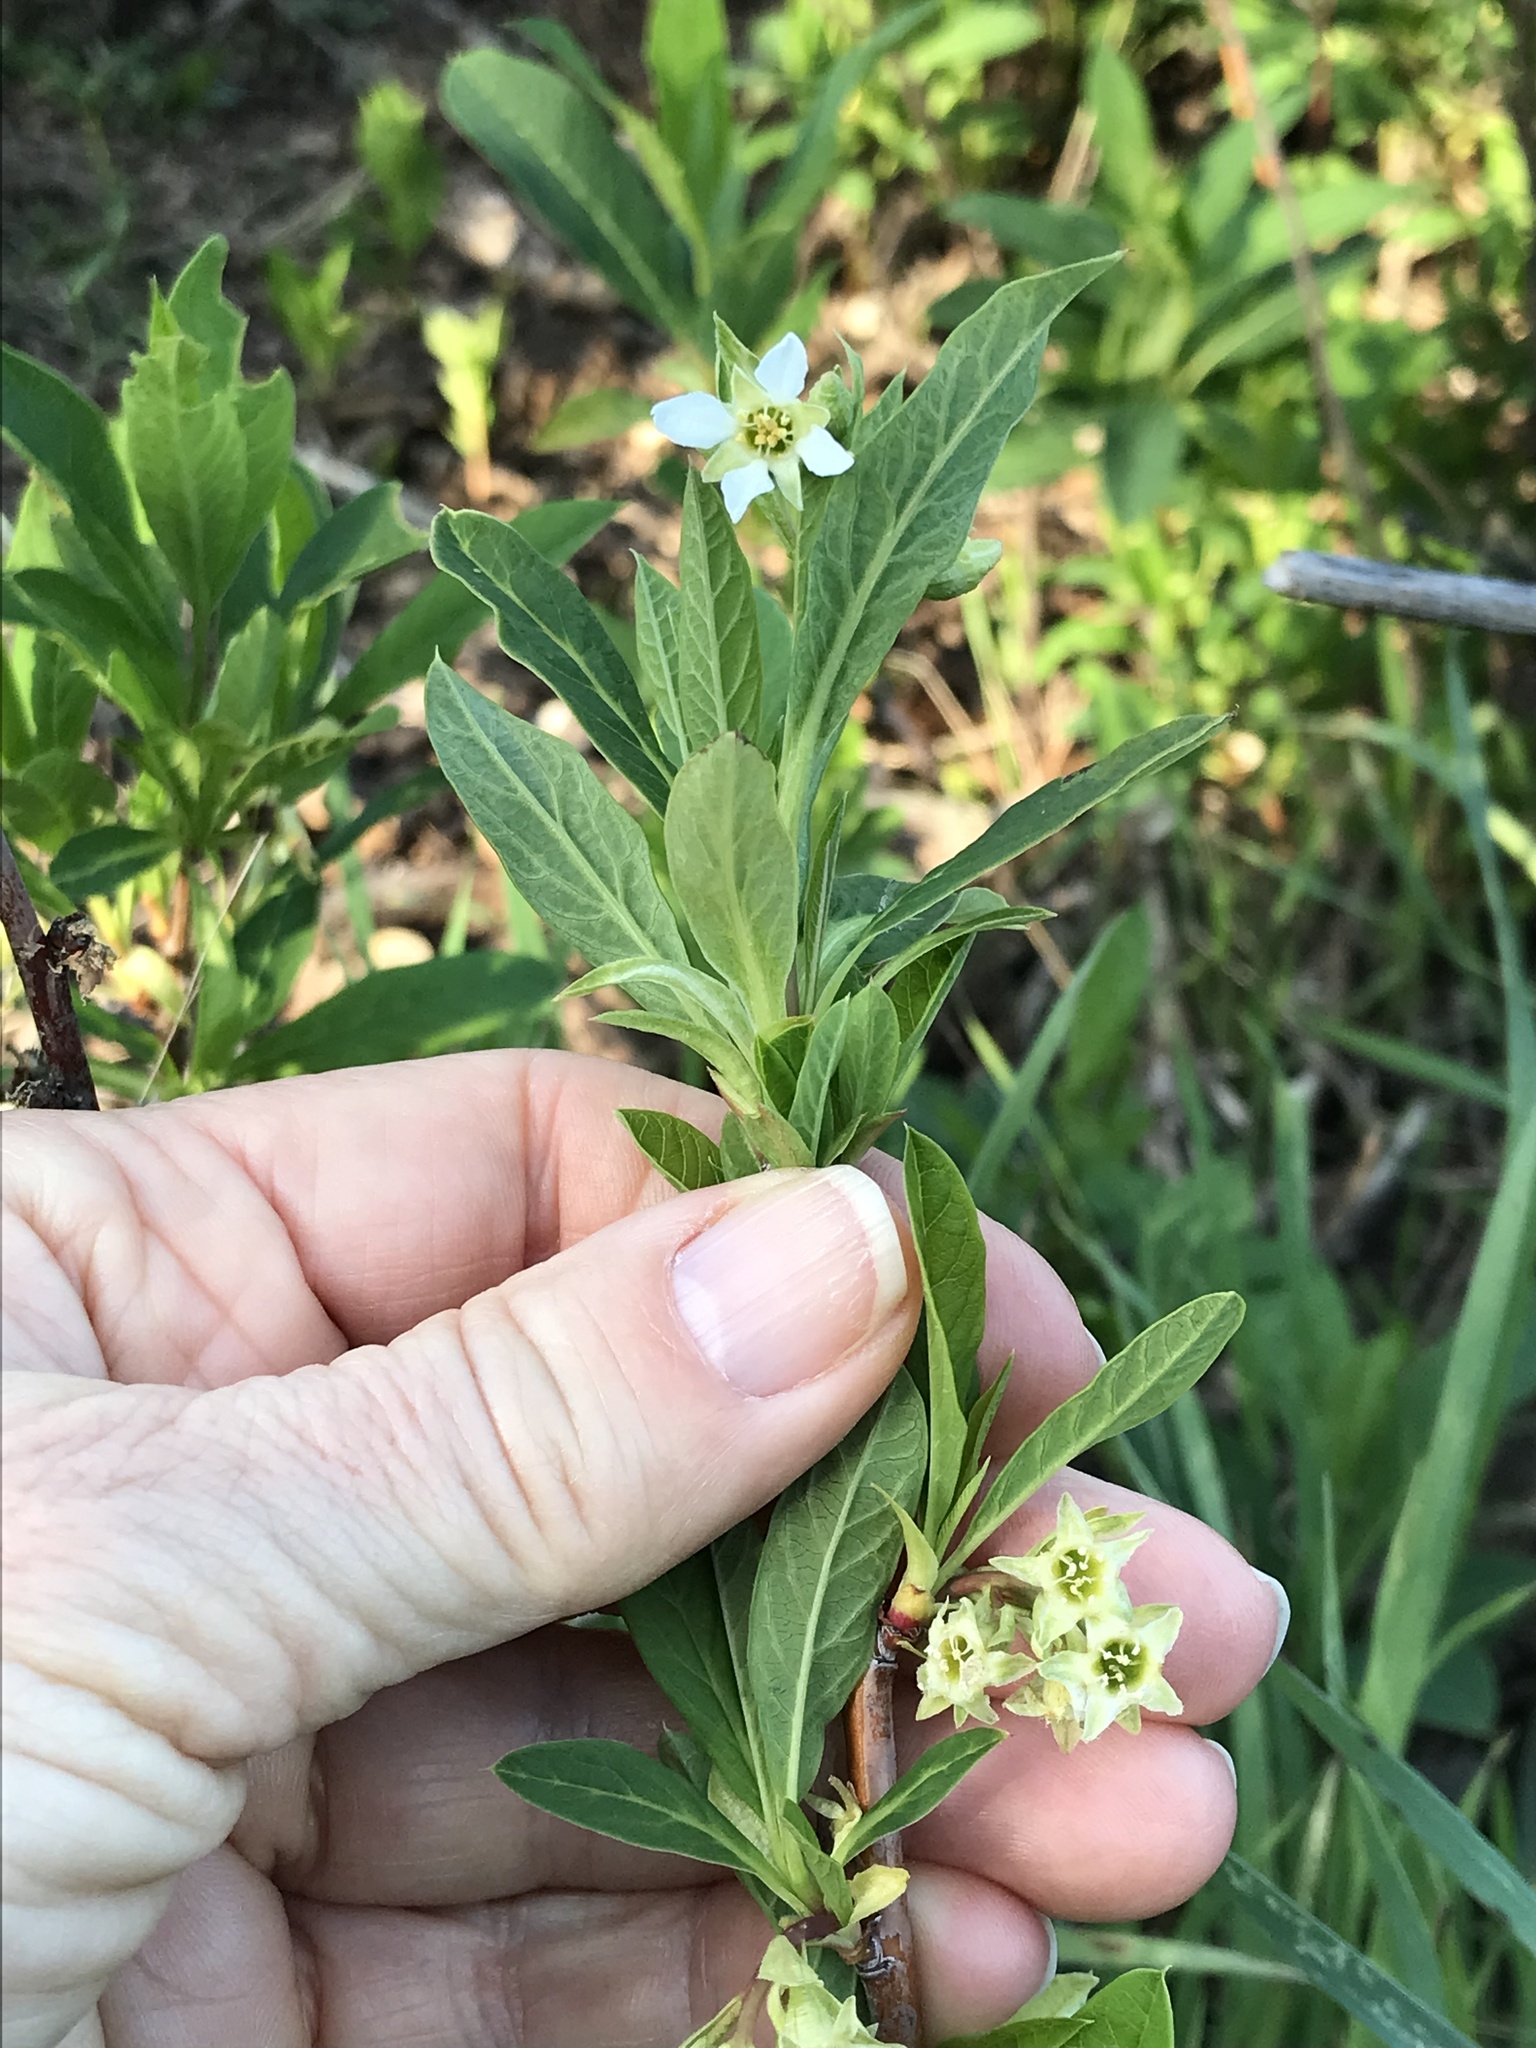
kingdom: Plantae
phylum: Tracheophyta
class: Magnoliopsida
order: Rosales
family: Rosaceae
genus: Oemleria
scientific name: Oemleria cerasiformis
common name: Osoberry
